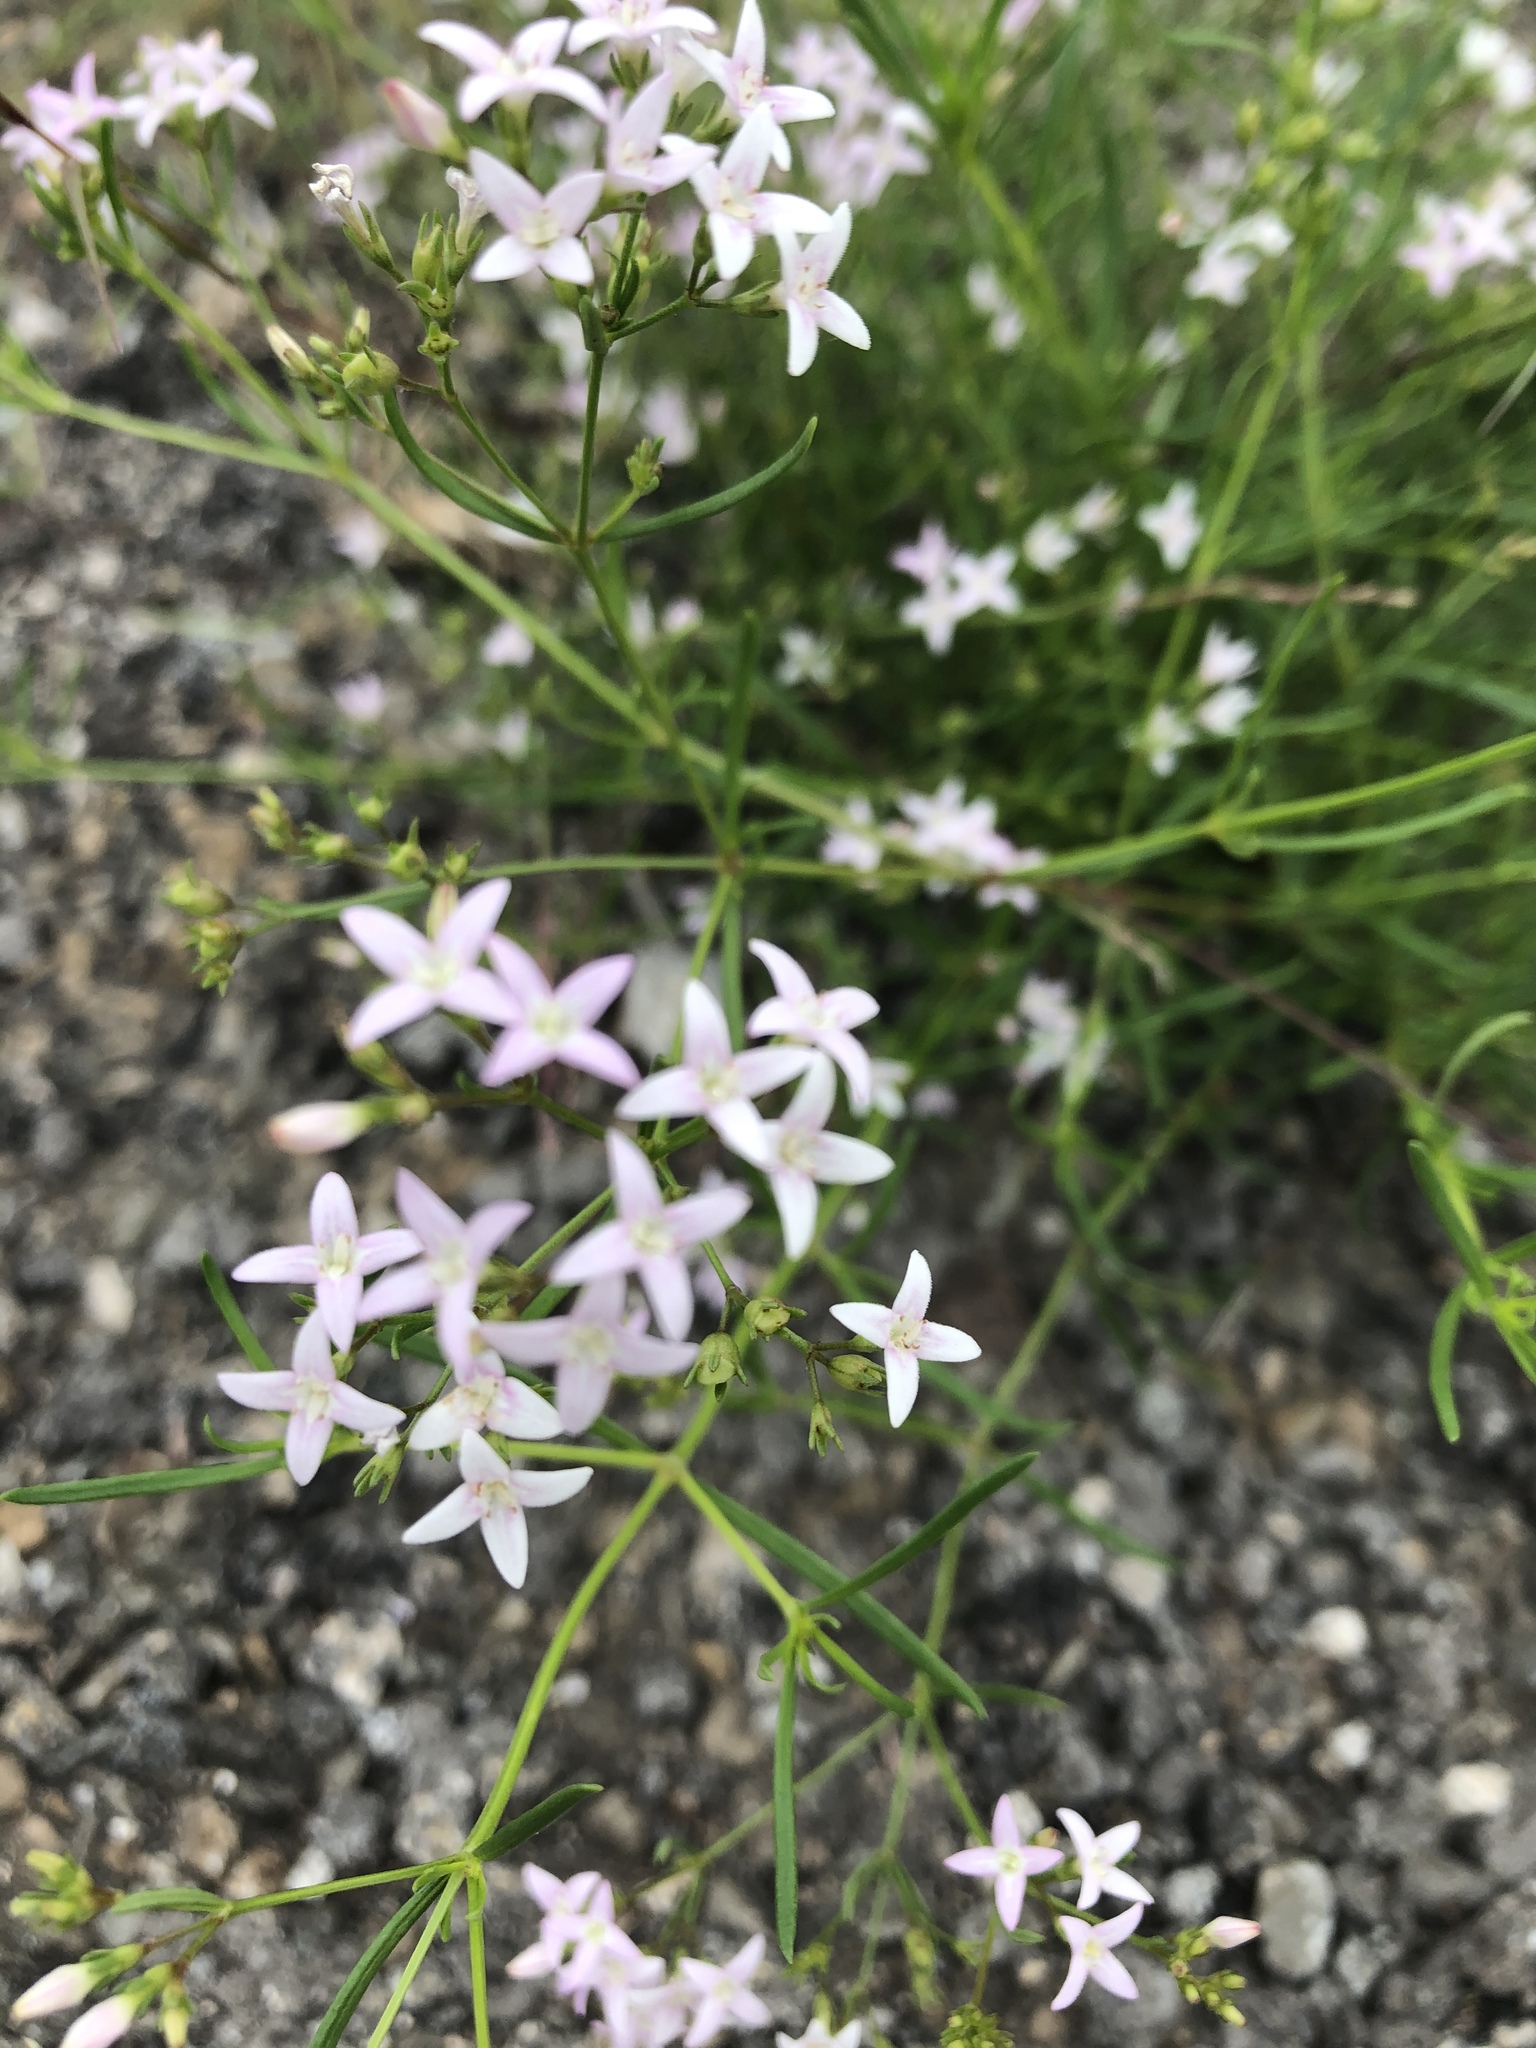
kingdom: Plantae
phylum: Tracheophyta
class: Magnoliopsida
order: Gentianales
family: Rubiaceae
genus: Stenaria
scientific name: Stenaria nigricans
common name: Diamondflowers
